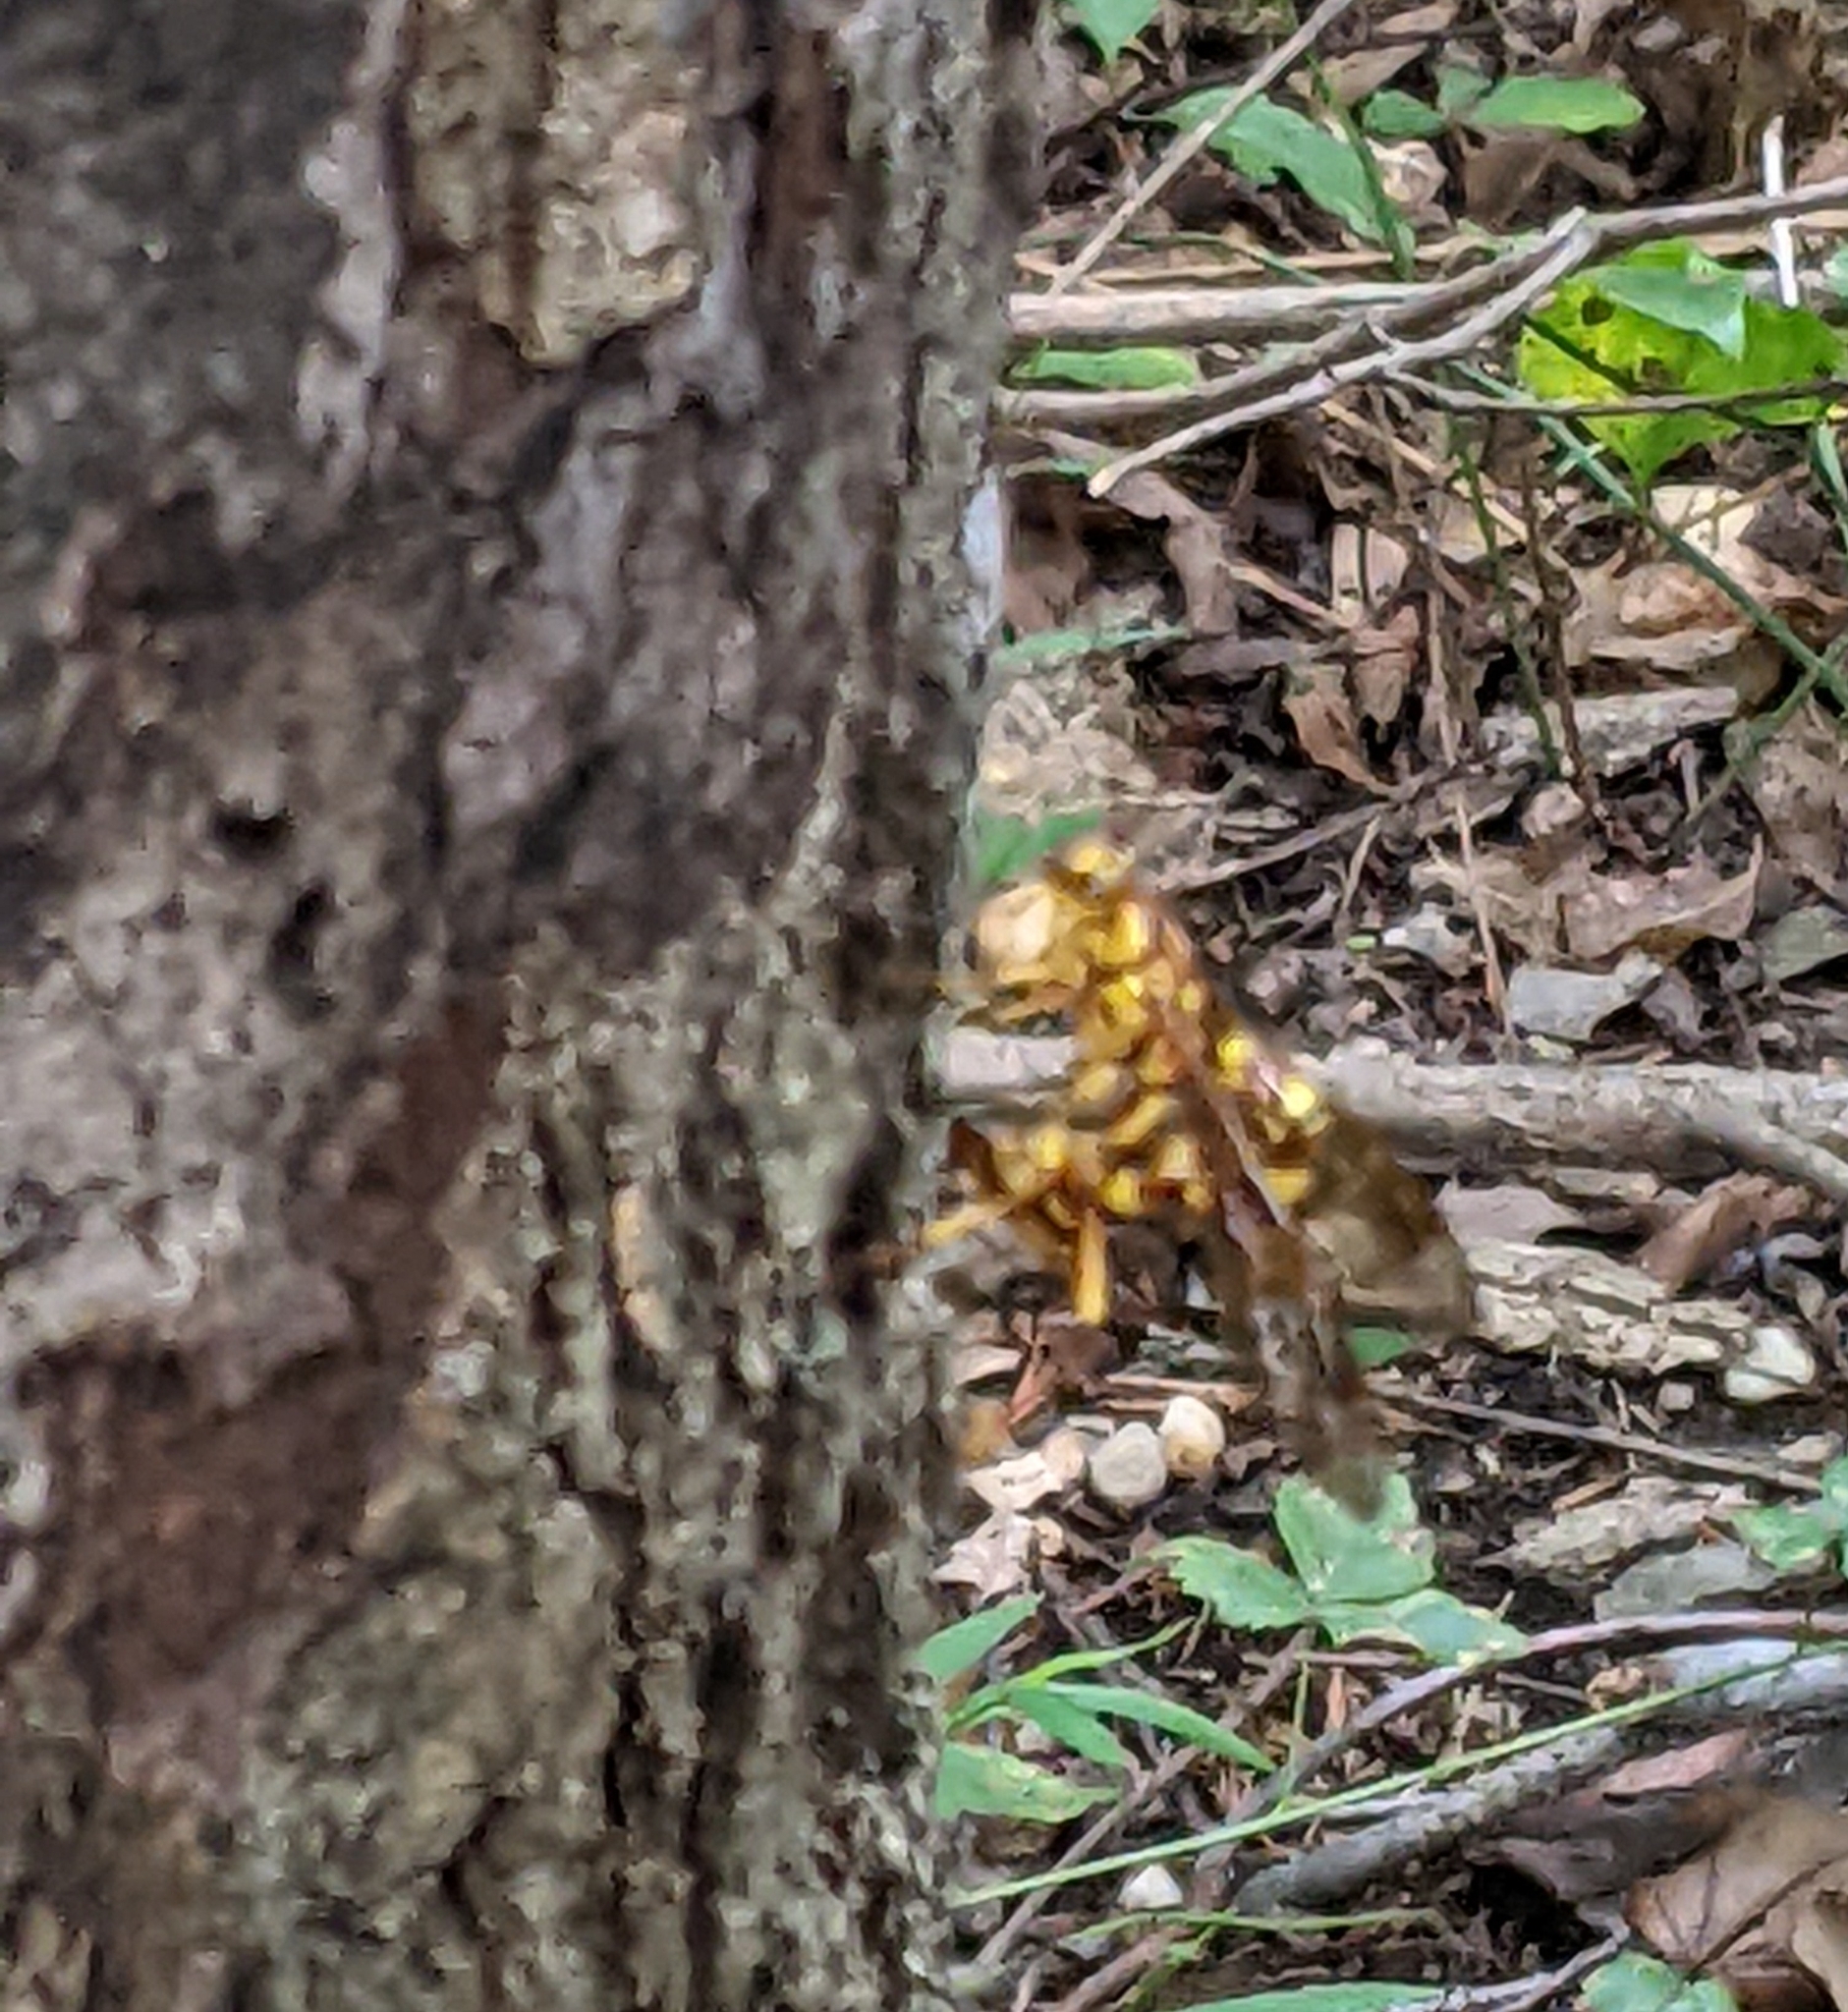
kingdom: Animalia
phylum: Arthropoda
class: Insecta
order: Hymenoptera
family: Ichneumonidae
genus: Megarhyssa
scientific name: Megarhyssa greenei
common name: Greene's giant ichneumonid wasp
